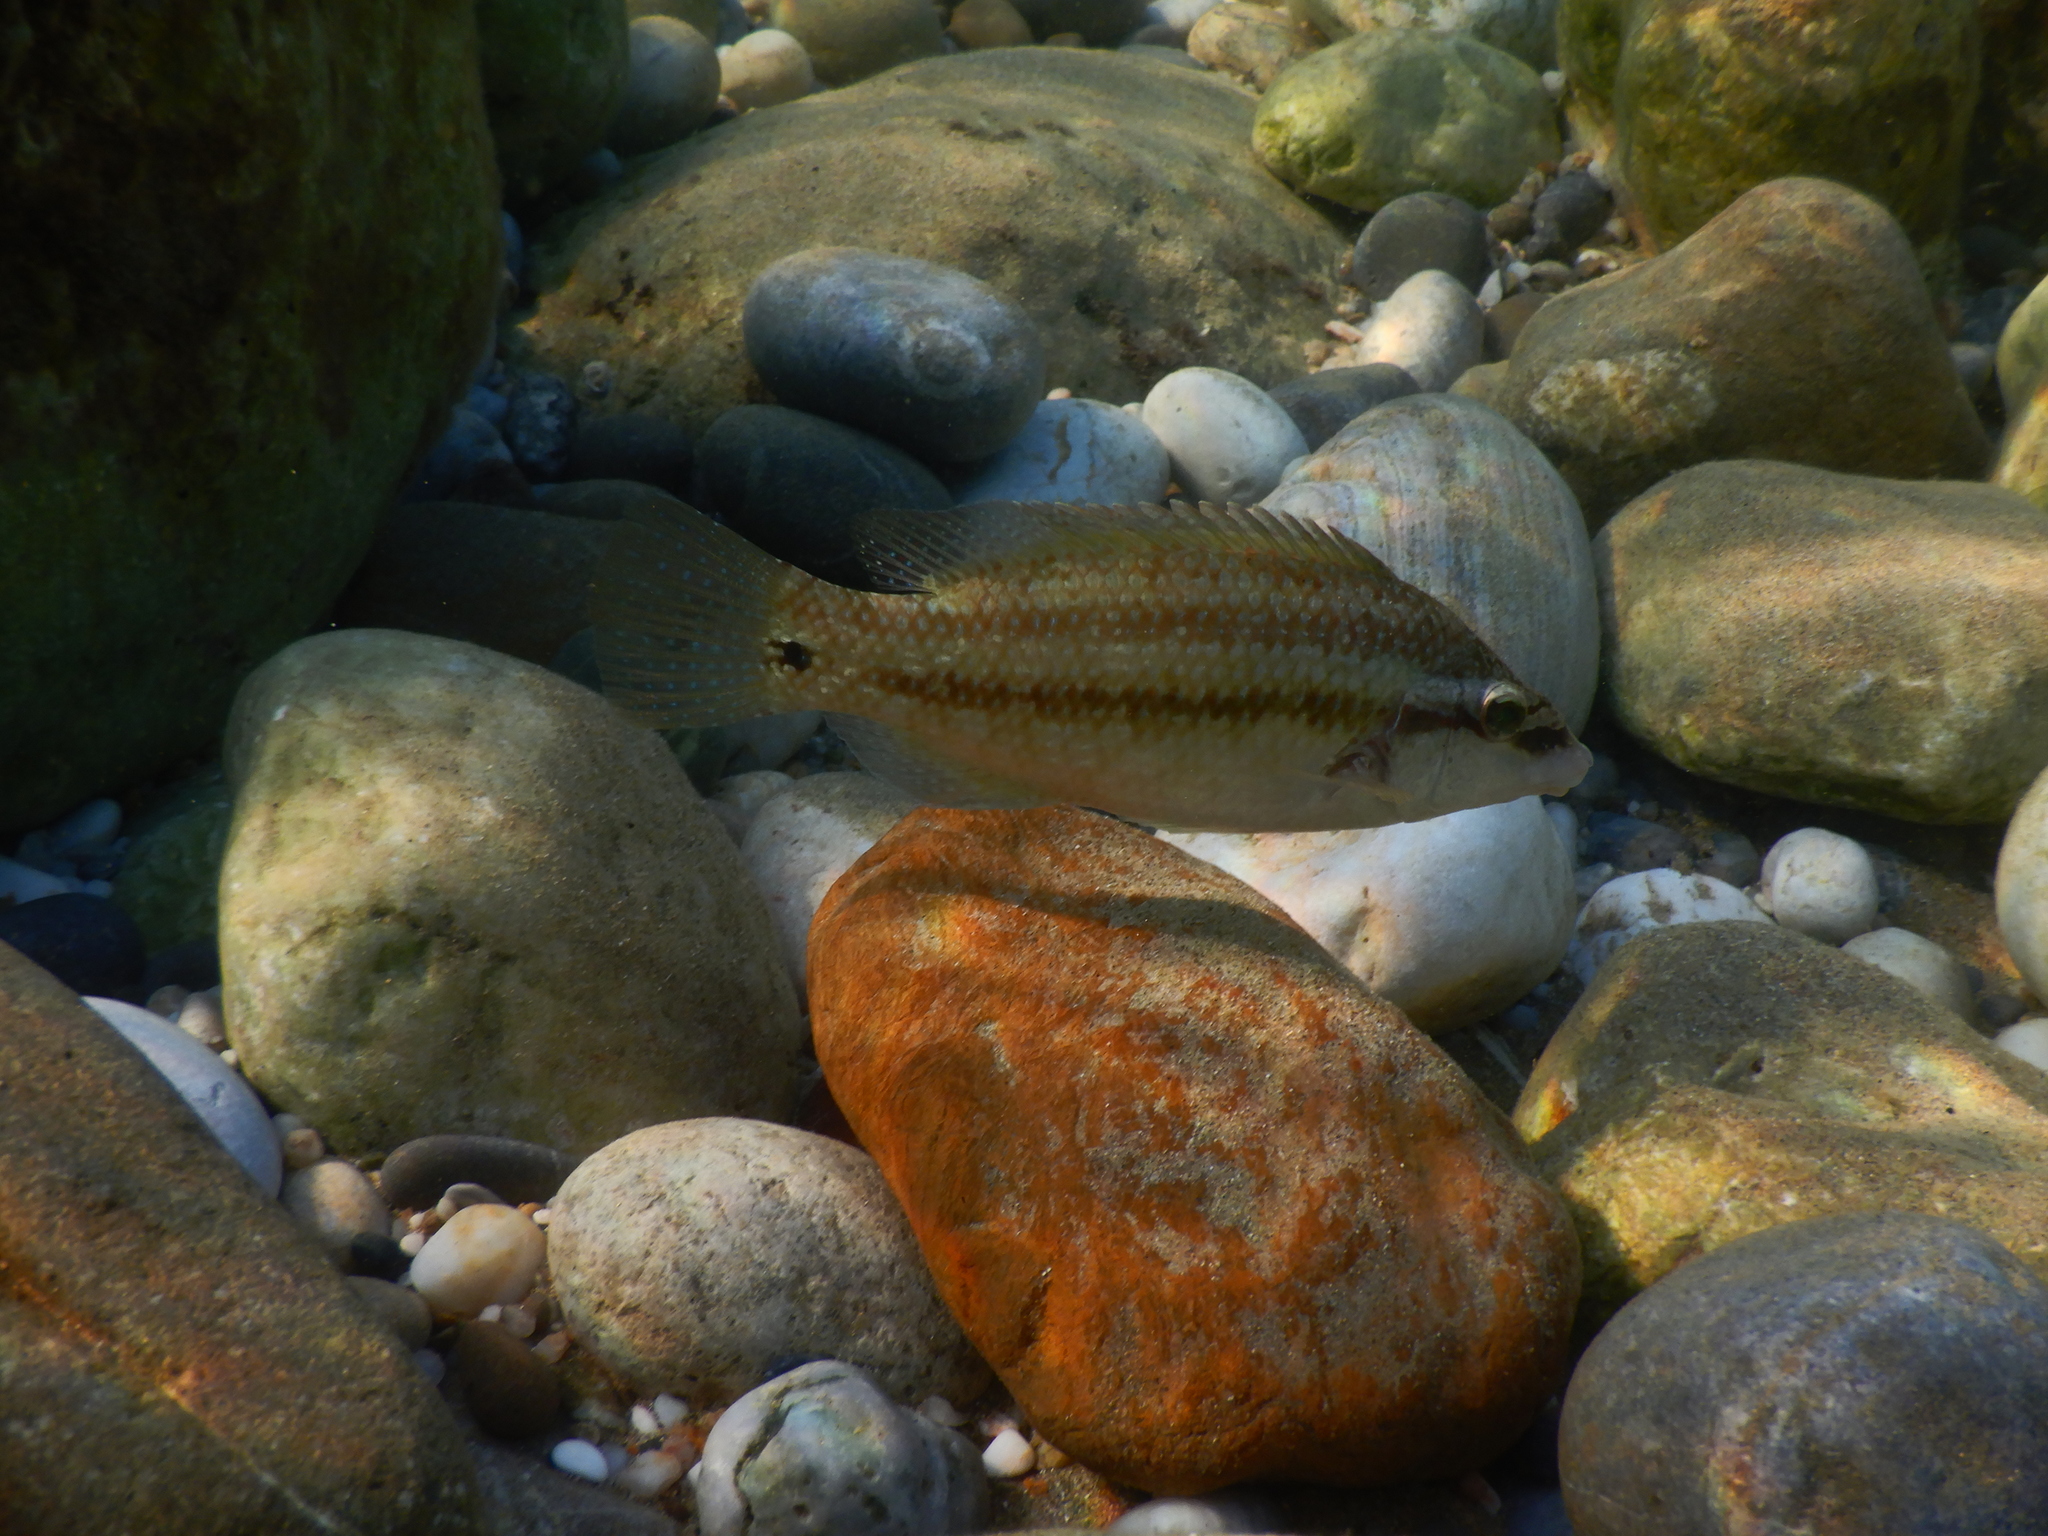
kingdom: Animalia
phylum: Chordata
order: Perciformes
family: Labridae
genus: Symphodus
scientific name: Symphodus tinca
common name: Peacock wrasse
